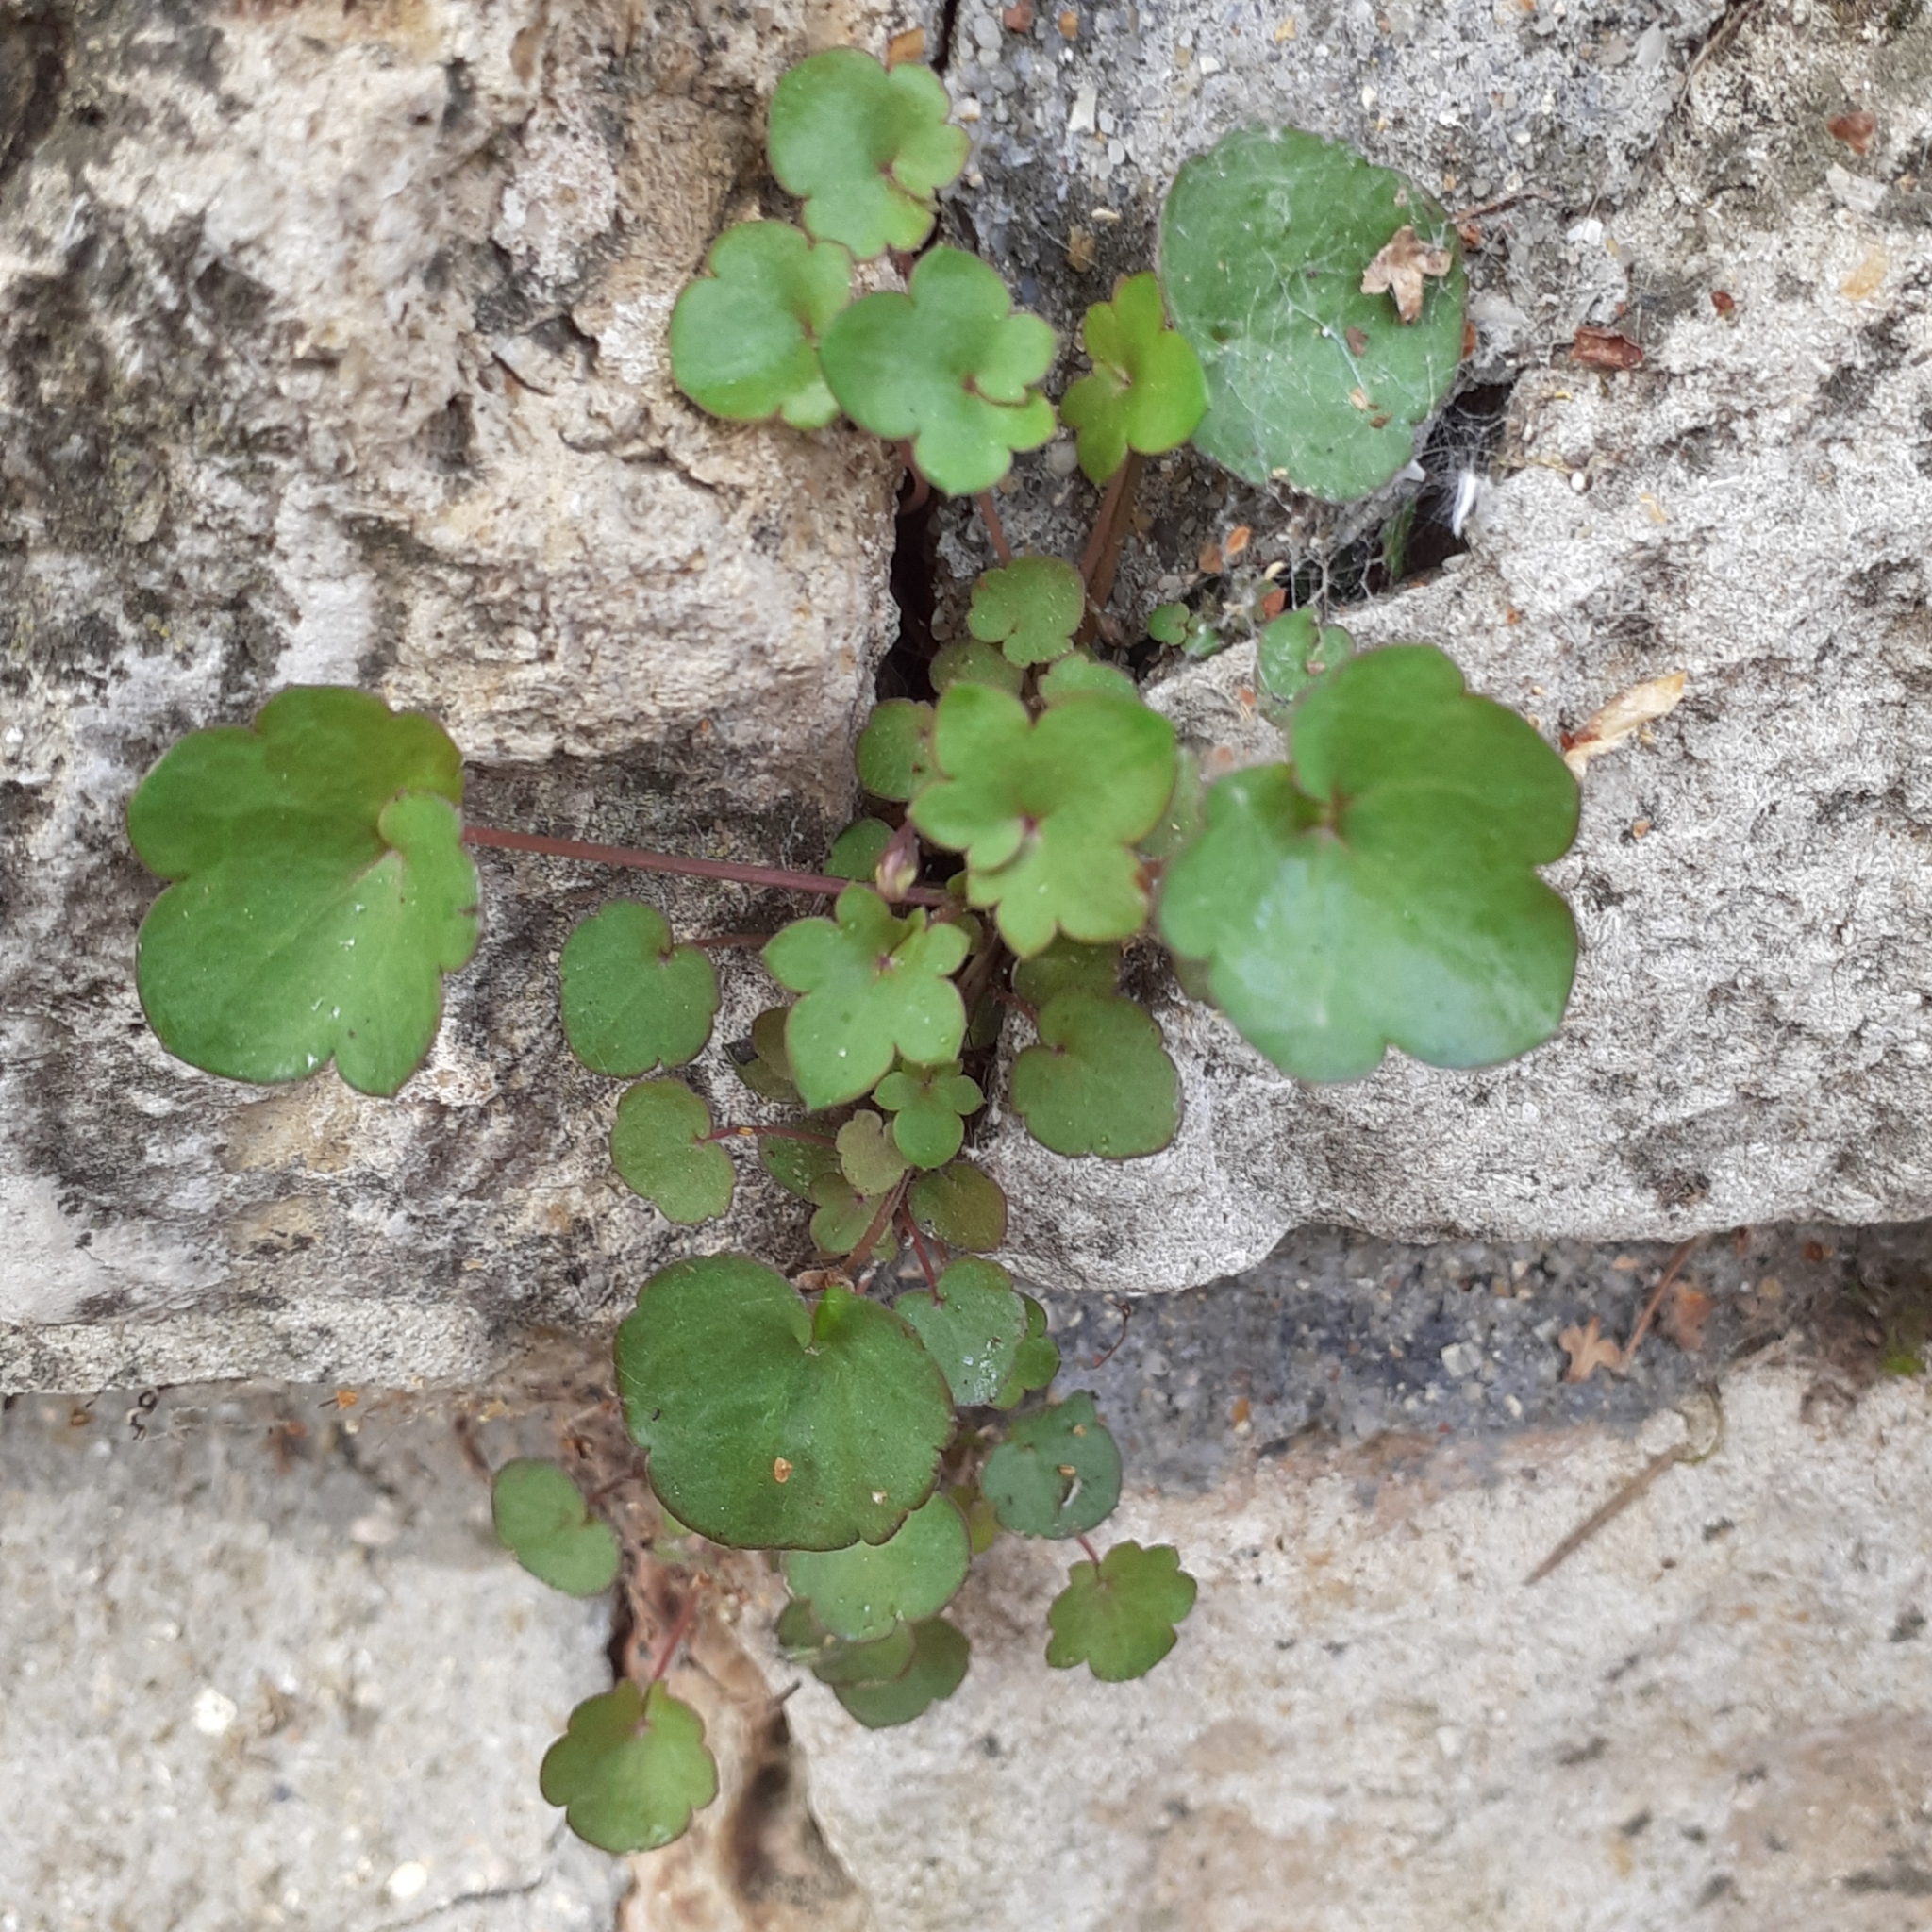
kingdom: Plantae
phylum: Tracheophyta
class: Magnoliopsida
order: Lamiales
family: Plantaginaceae
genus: Cymbalaria
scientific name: Cymbalaria muralis
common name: Ivy-leaved toadflax
